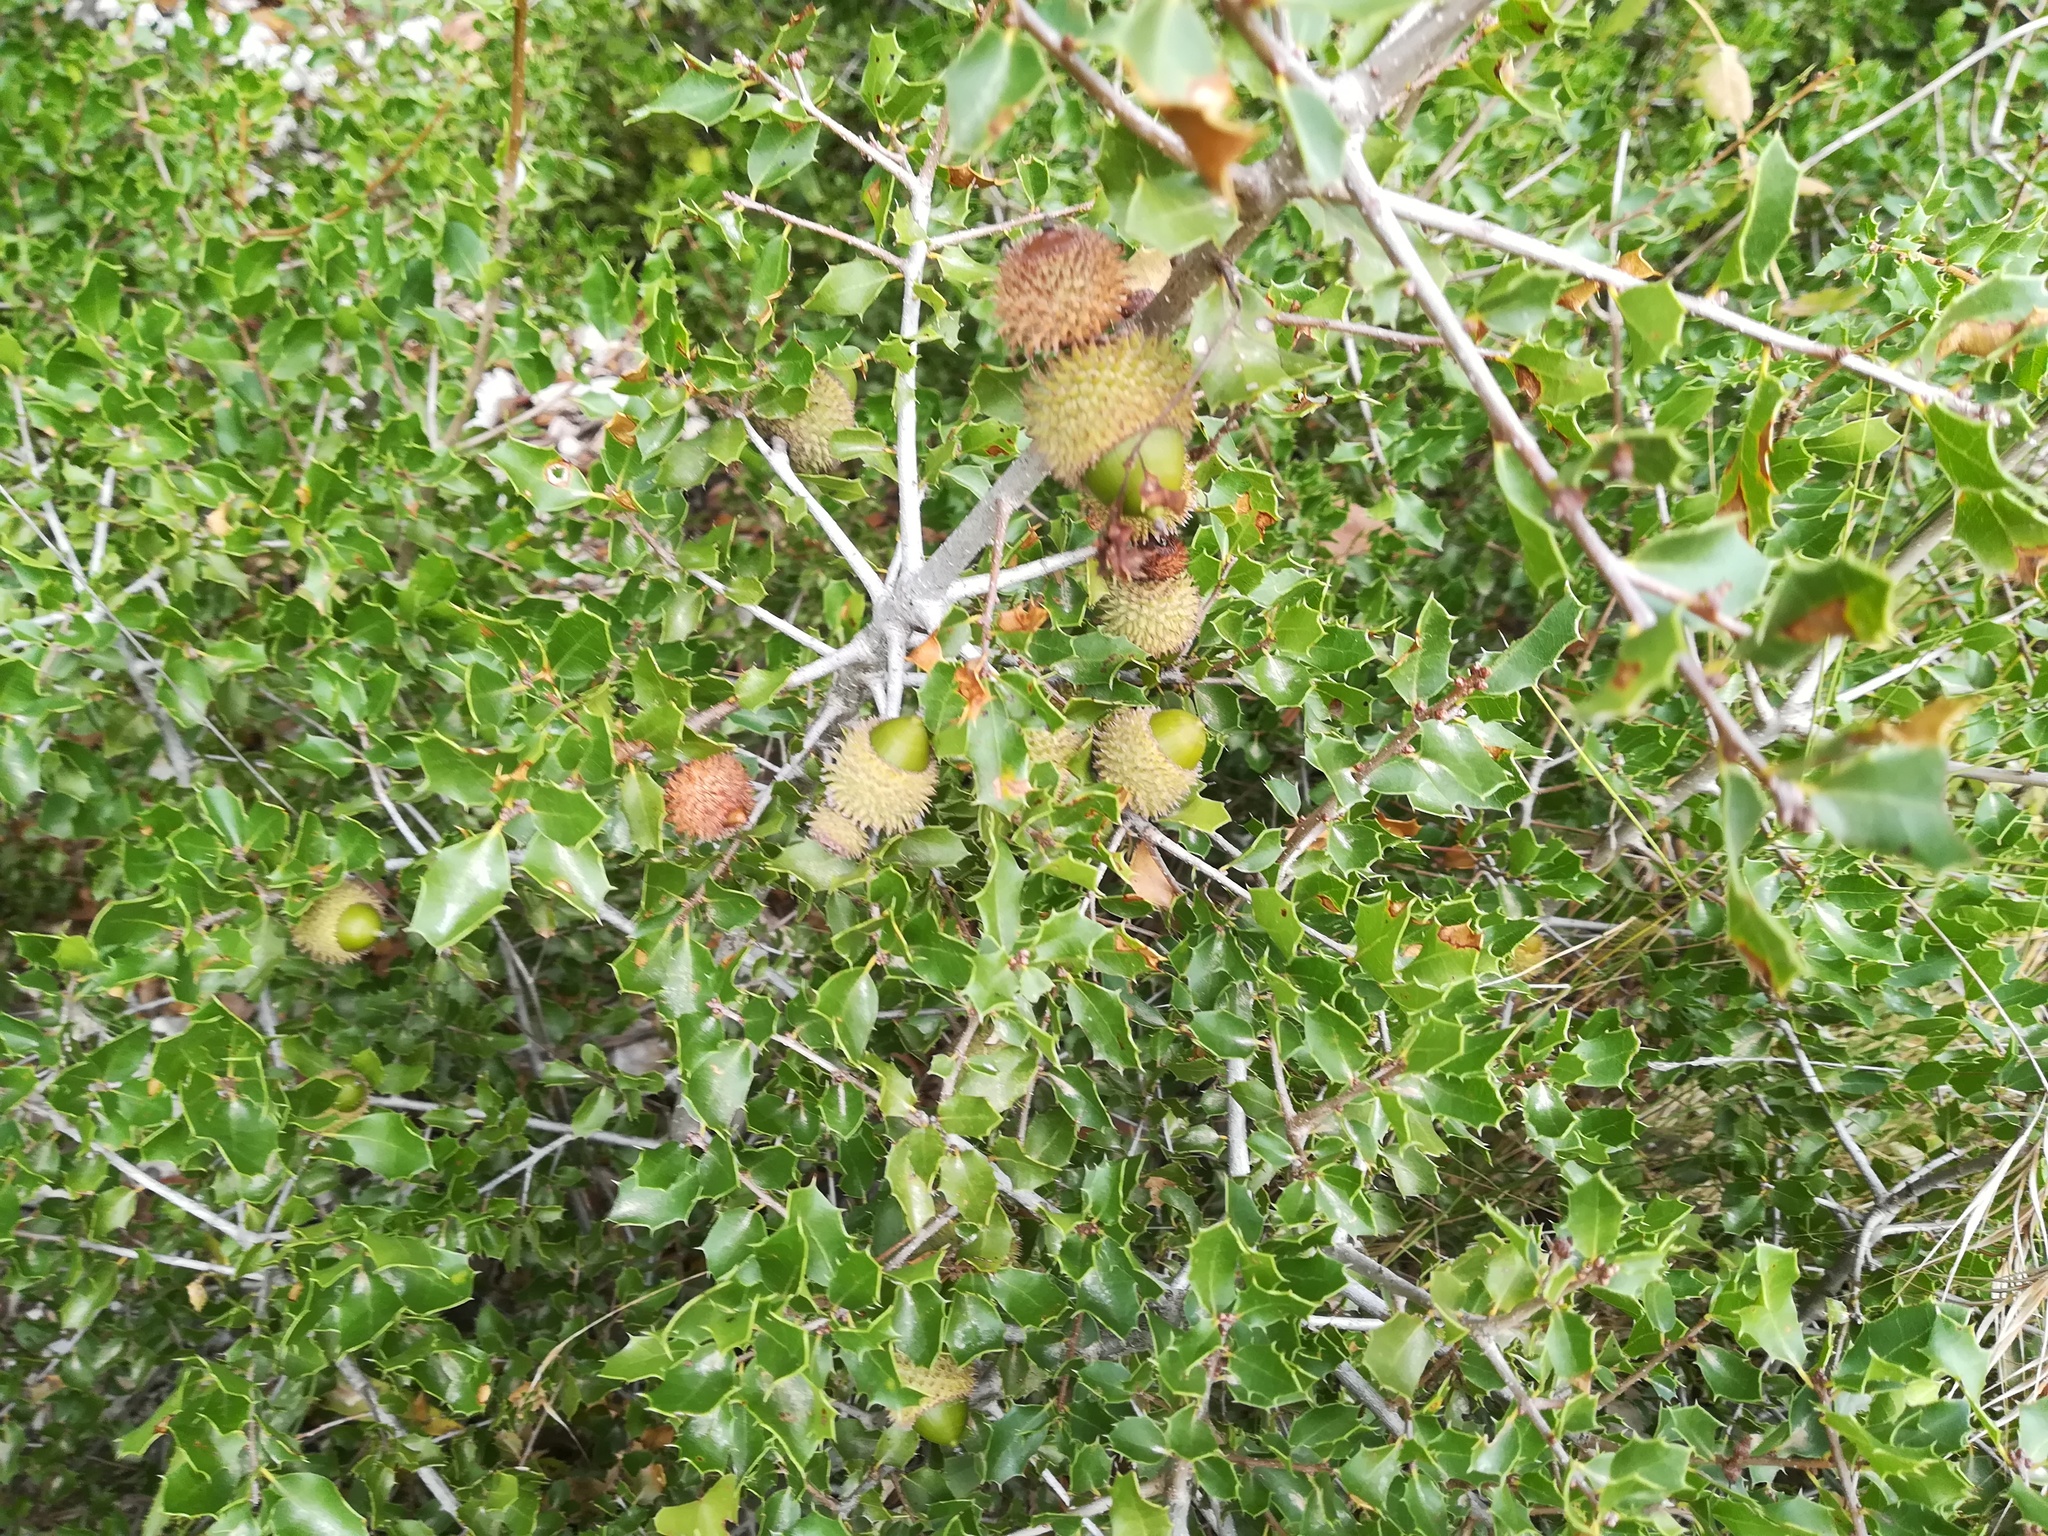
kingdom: Plantae
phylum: Tracheophyta
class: Magnoliopsida
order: Fagales
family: Fagaceae
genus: Quercus
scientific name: Quercus coccifera
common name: Kermes oak
